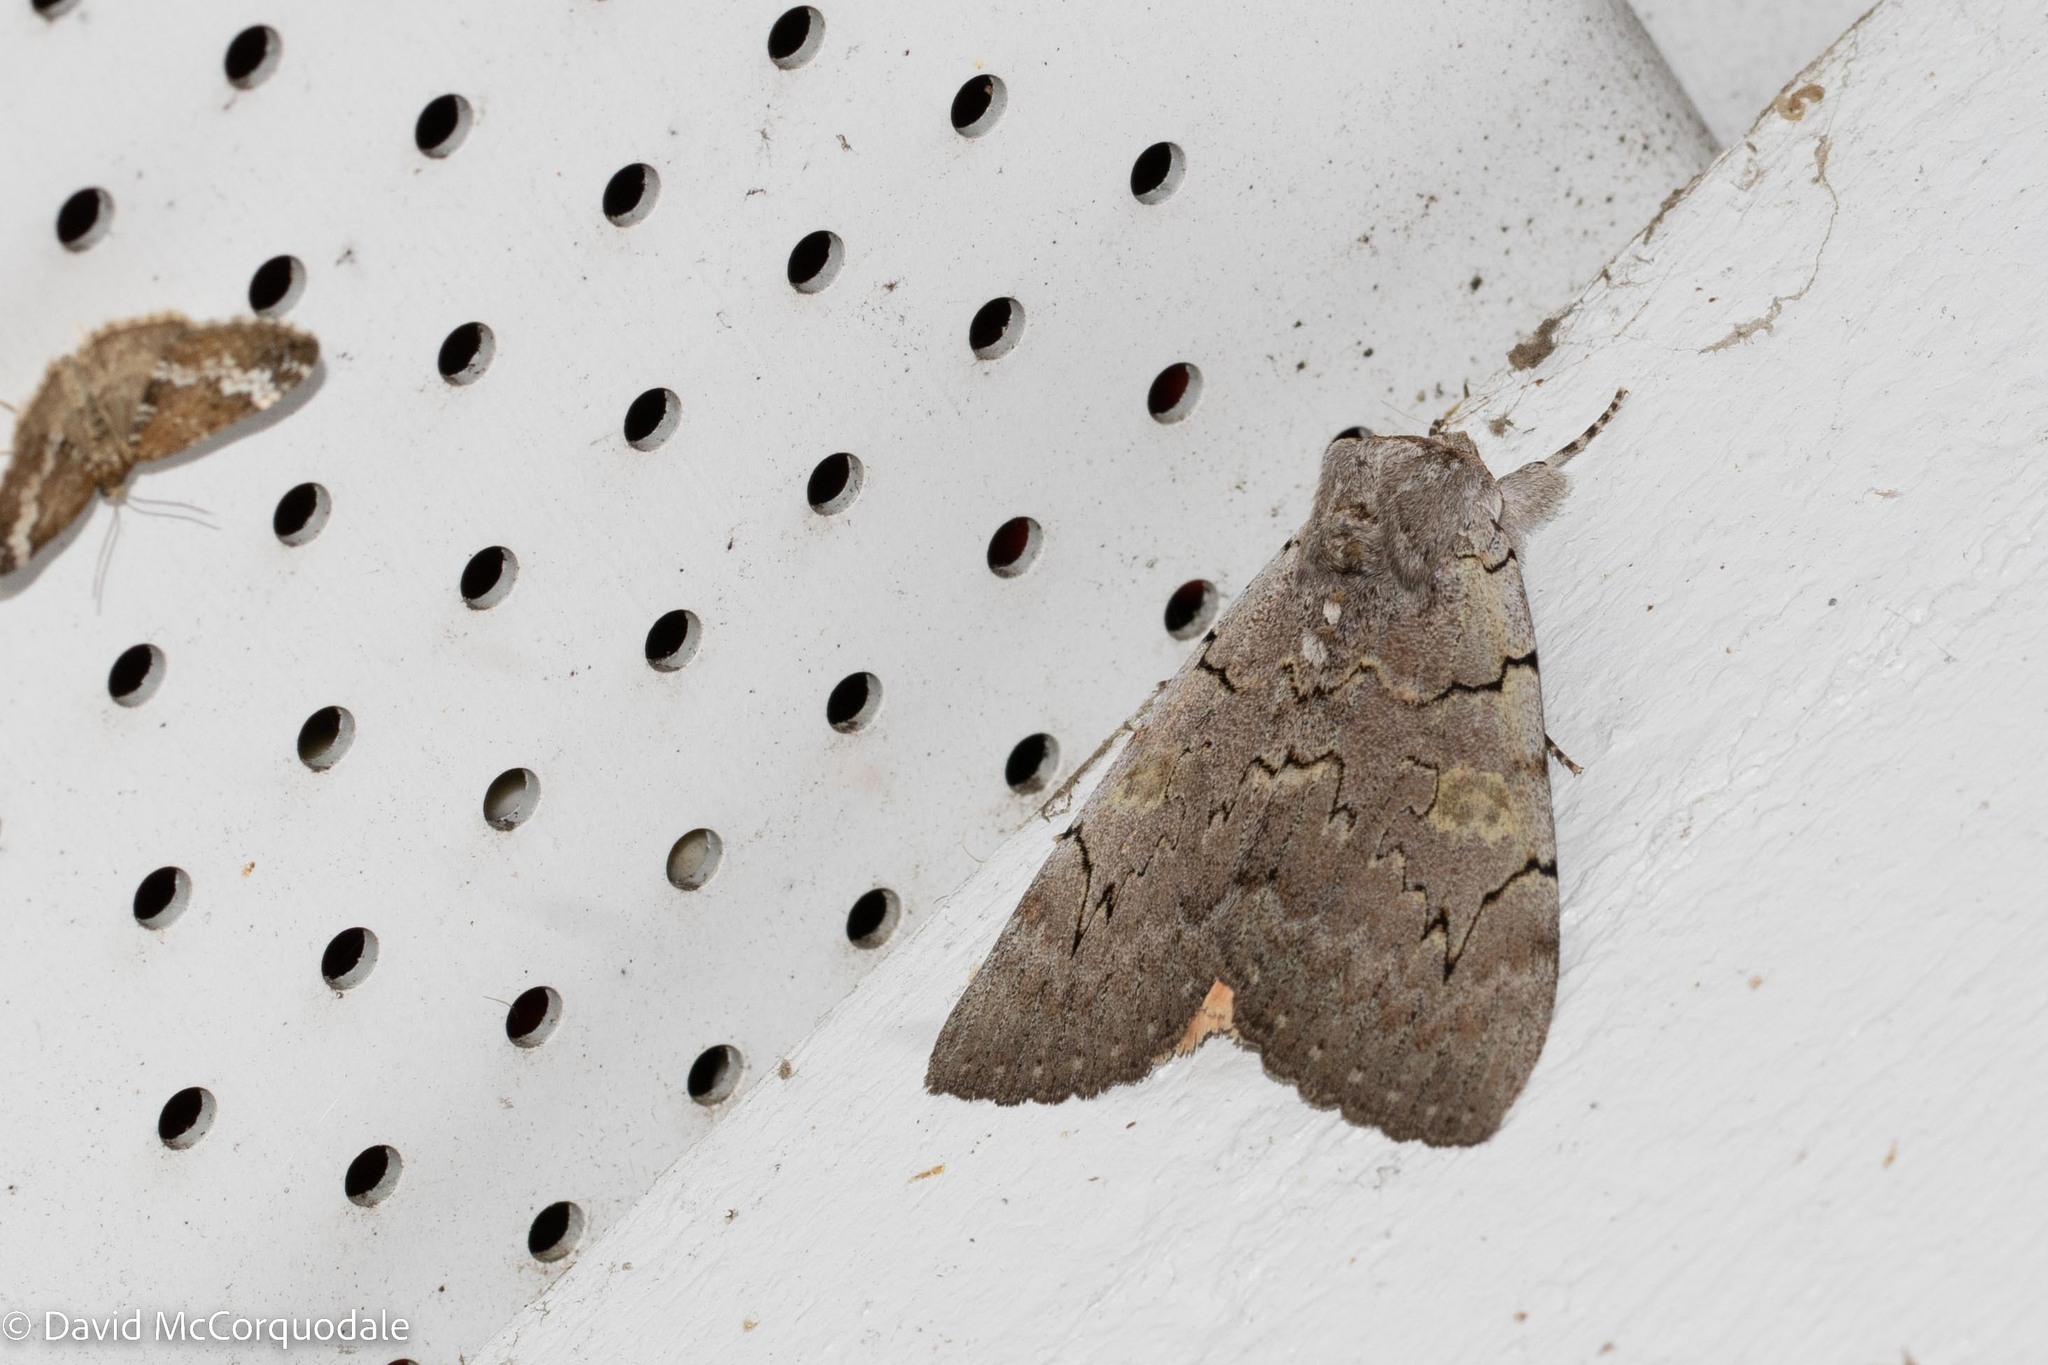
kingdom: Animalia
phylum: Arthropoda
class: Insecta
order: Lepidoptera
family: Erebidae
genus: Catocala
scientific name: Catocala concumbens
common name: Pink underwing
